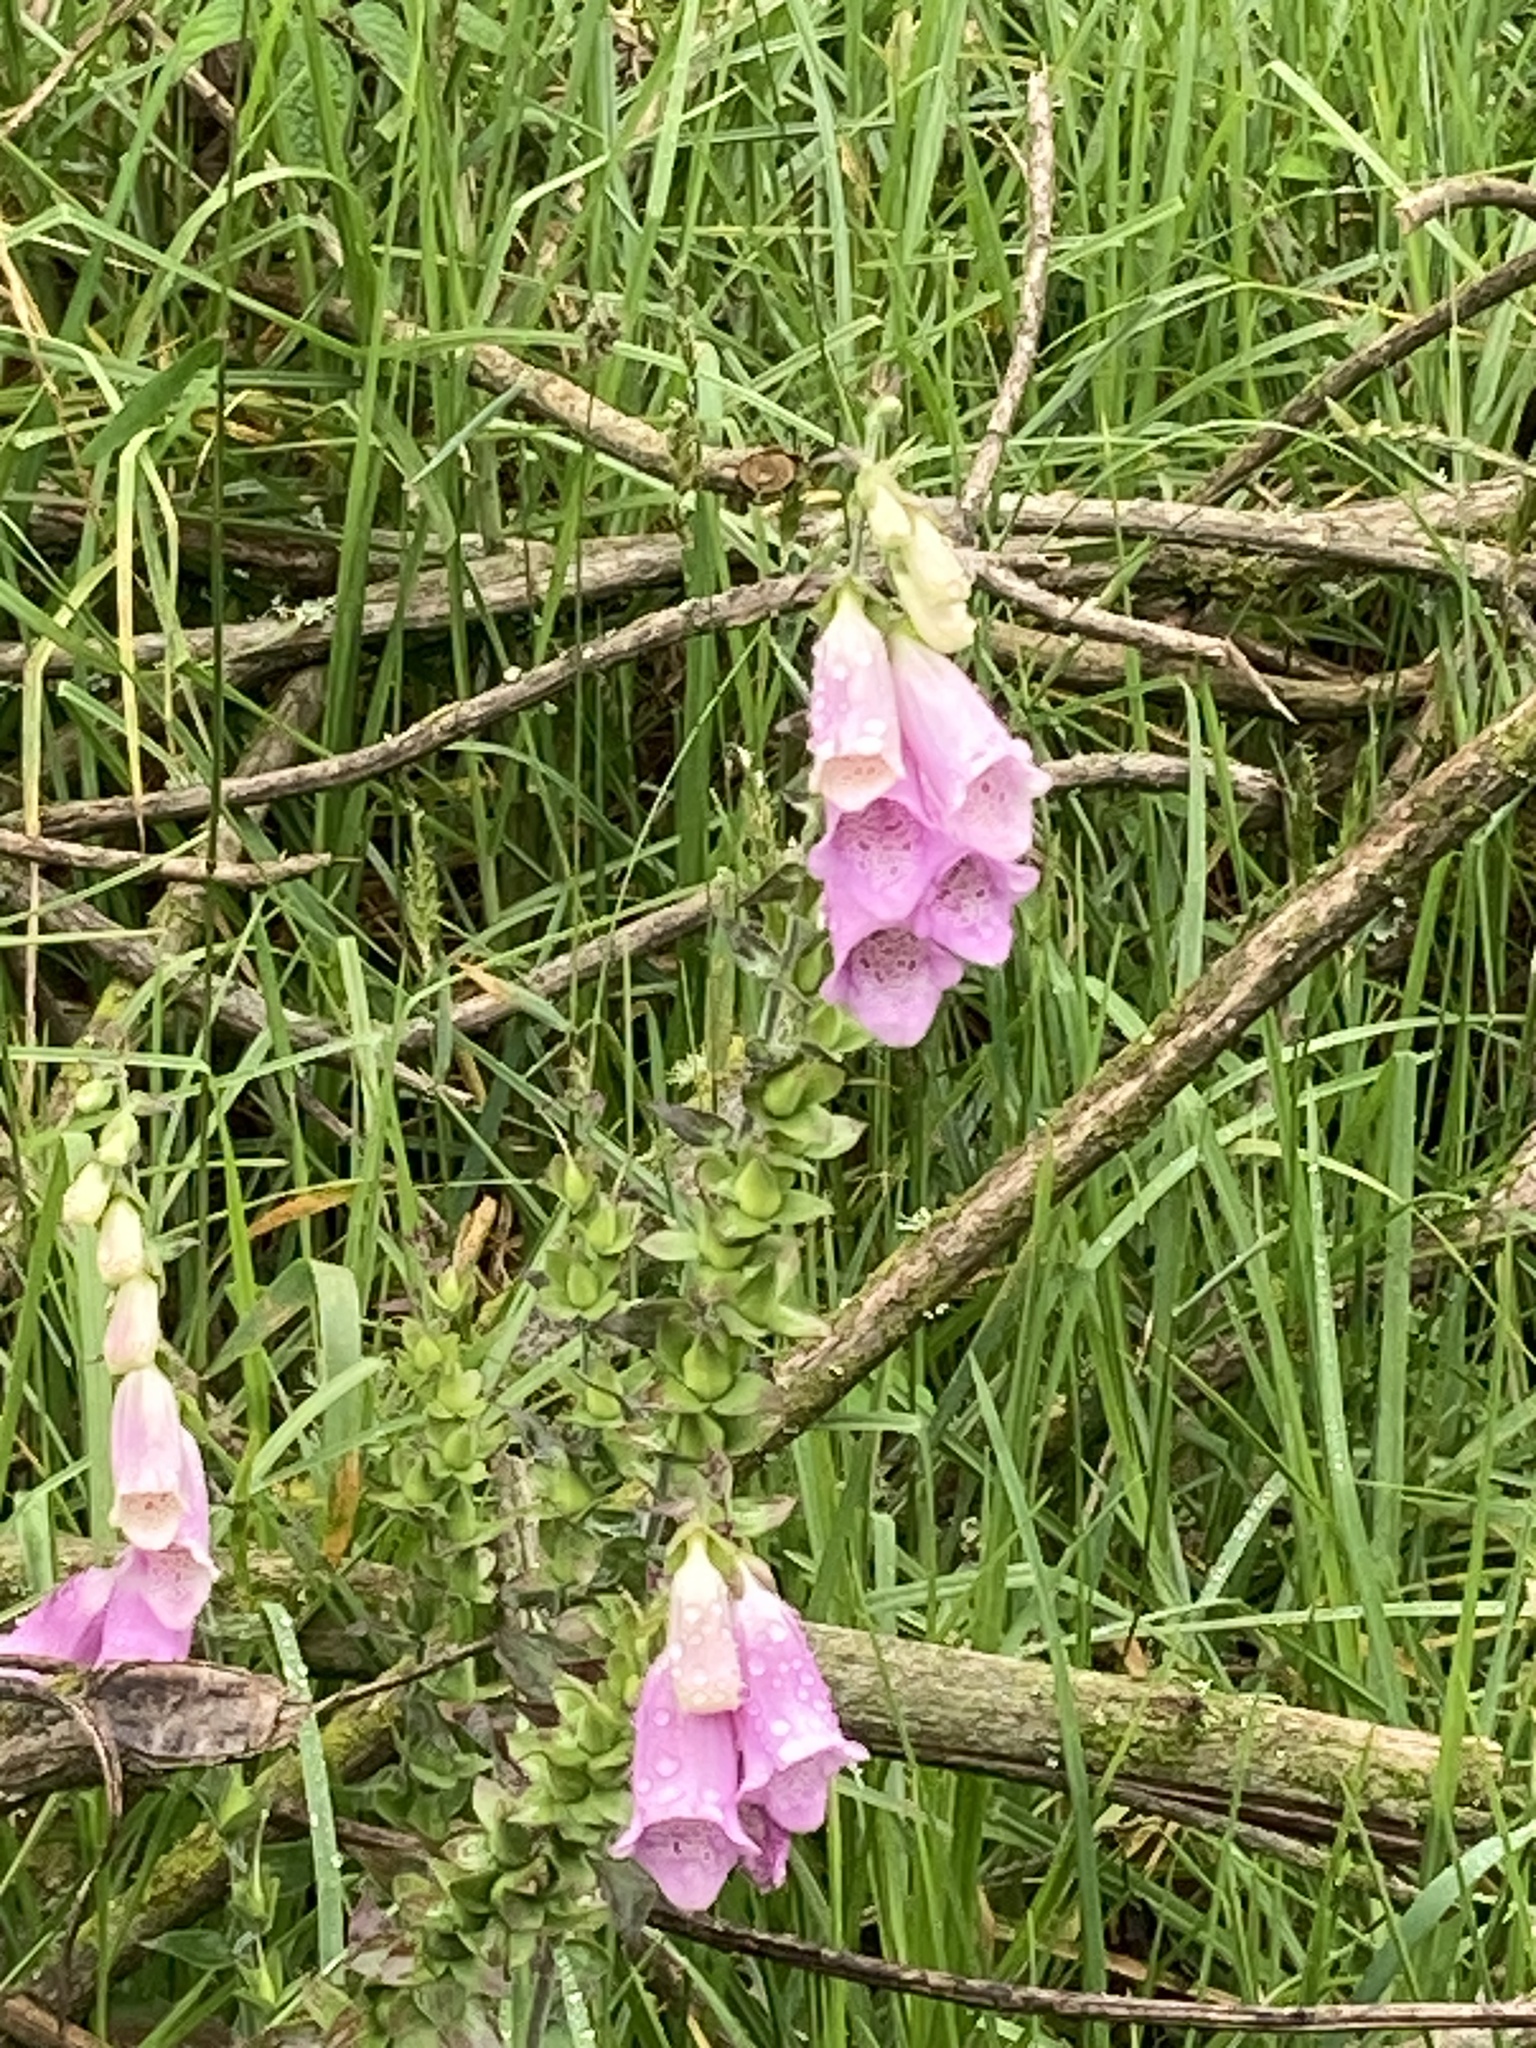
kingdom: Plantae
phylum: Tracheophyta
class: Magnoliopsida
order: Lamiales
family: Plantaginaceae
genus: Digitalis
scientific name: Digitalis purpurea
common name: Foxglove
